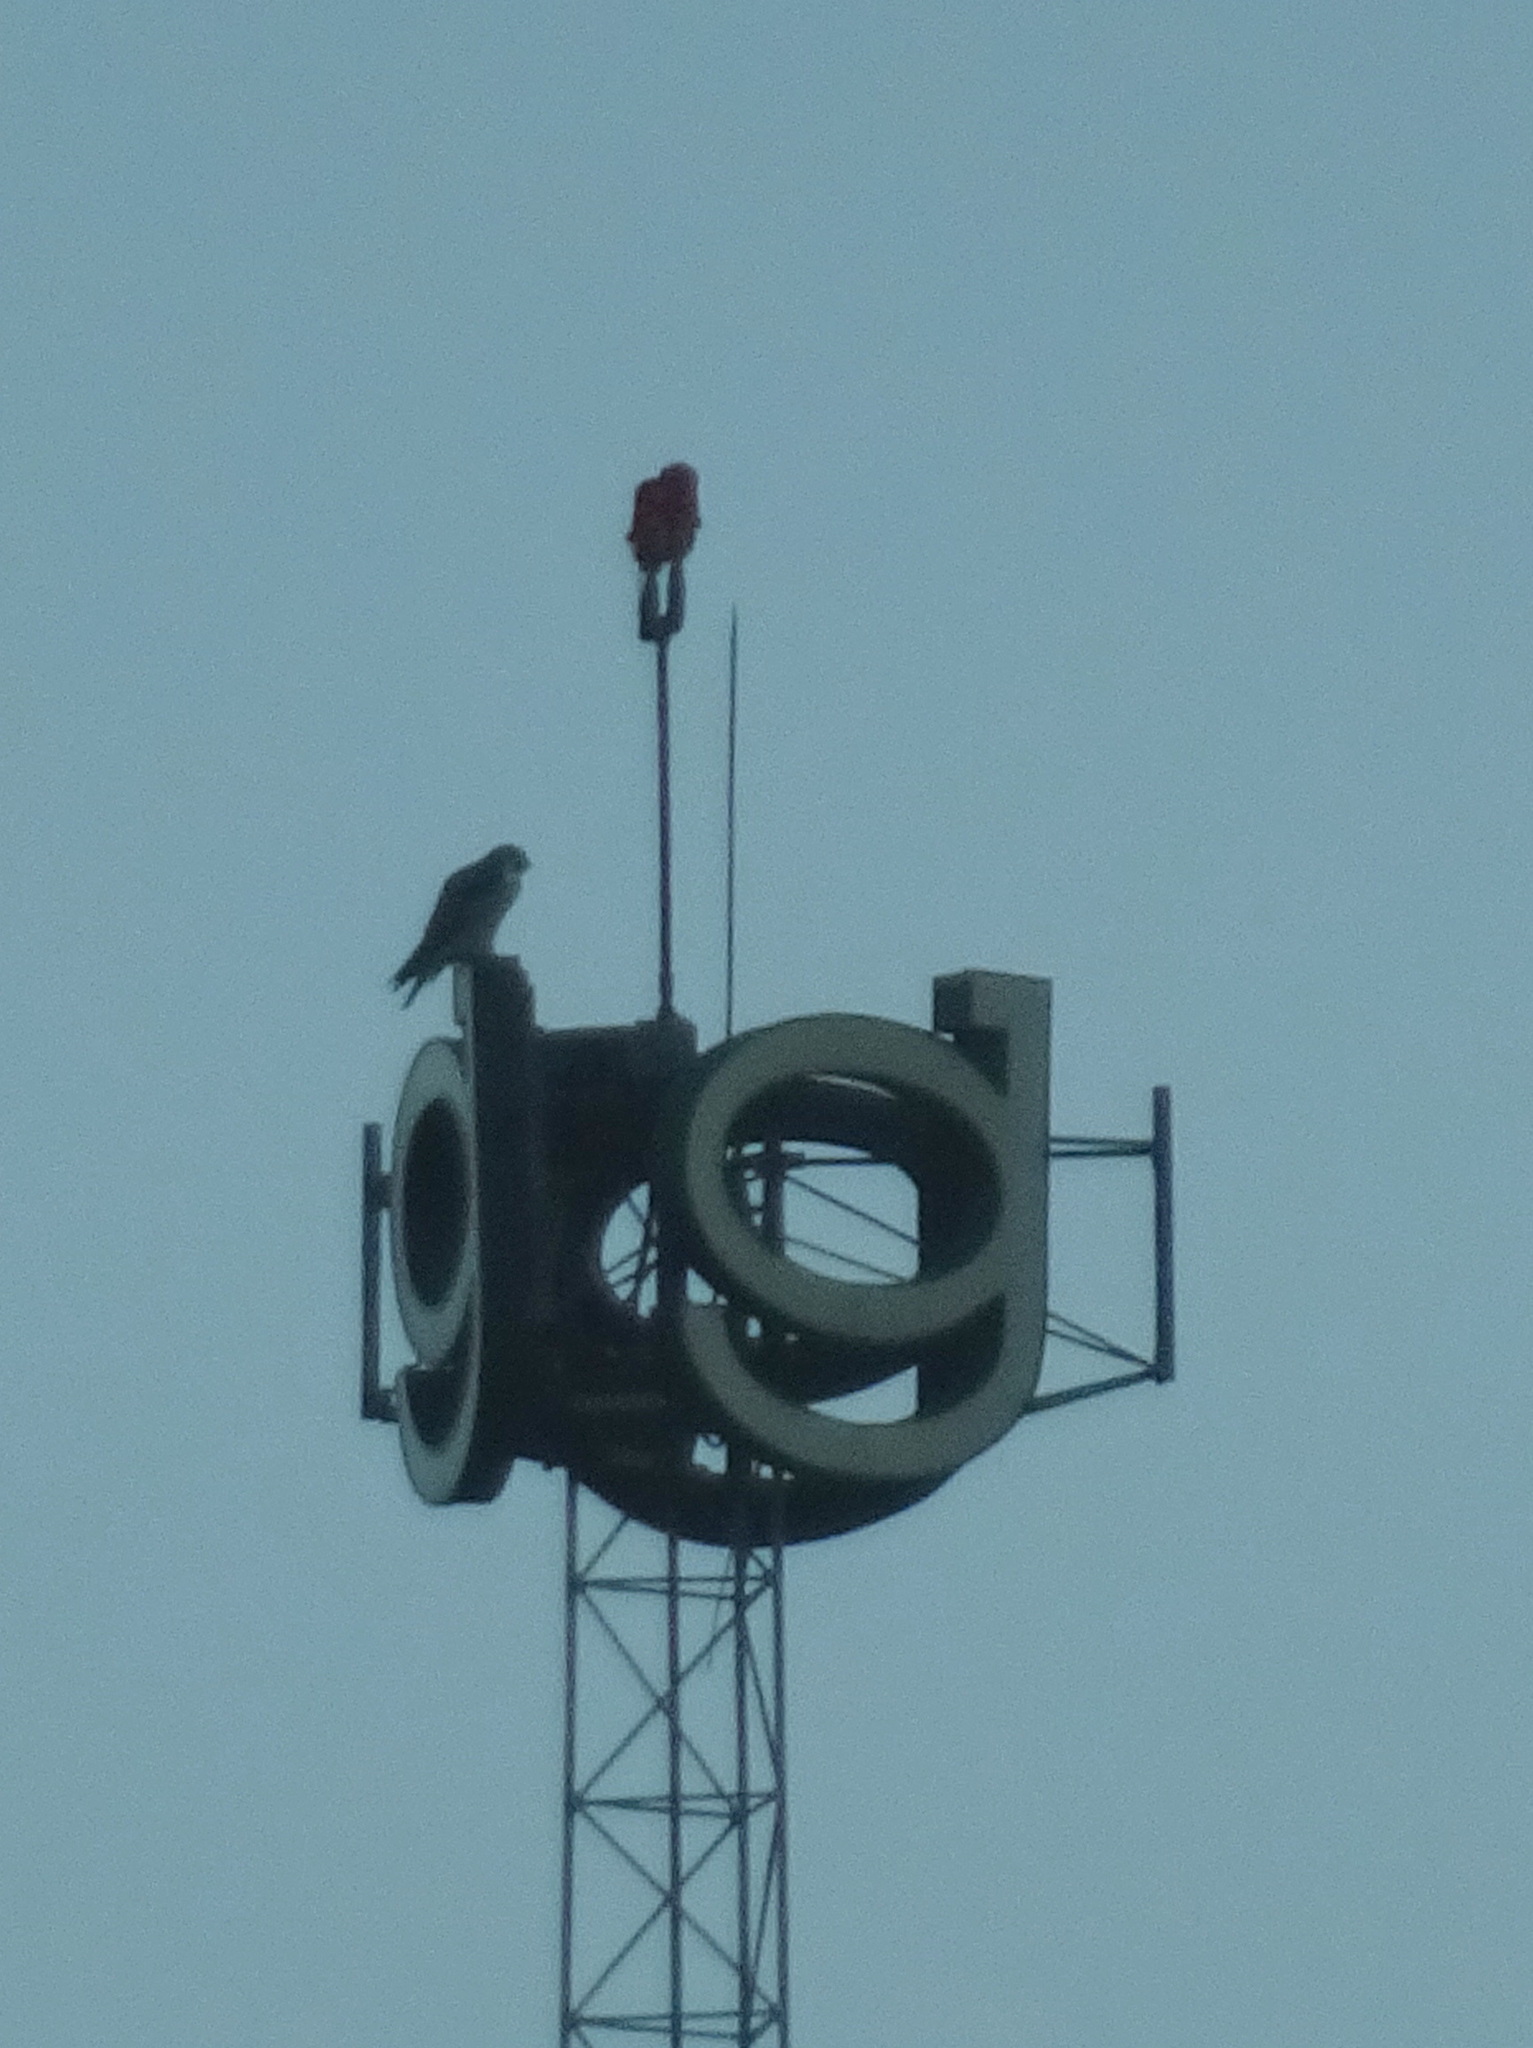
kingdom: Animalia
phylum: Chordata
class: Aves
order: Falconiformes
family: Falconidae
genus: Falco
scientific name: Falco peregrinus
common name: Peregrine falcon
